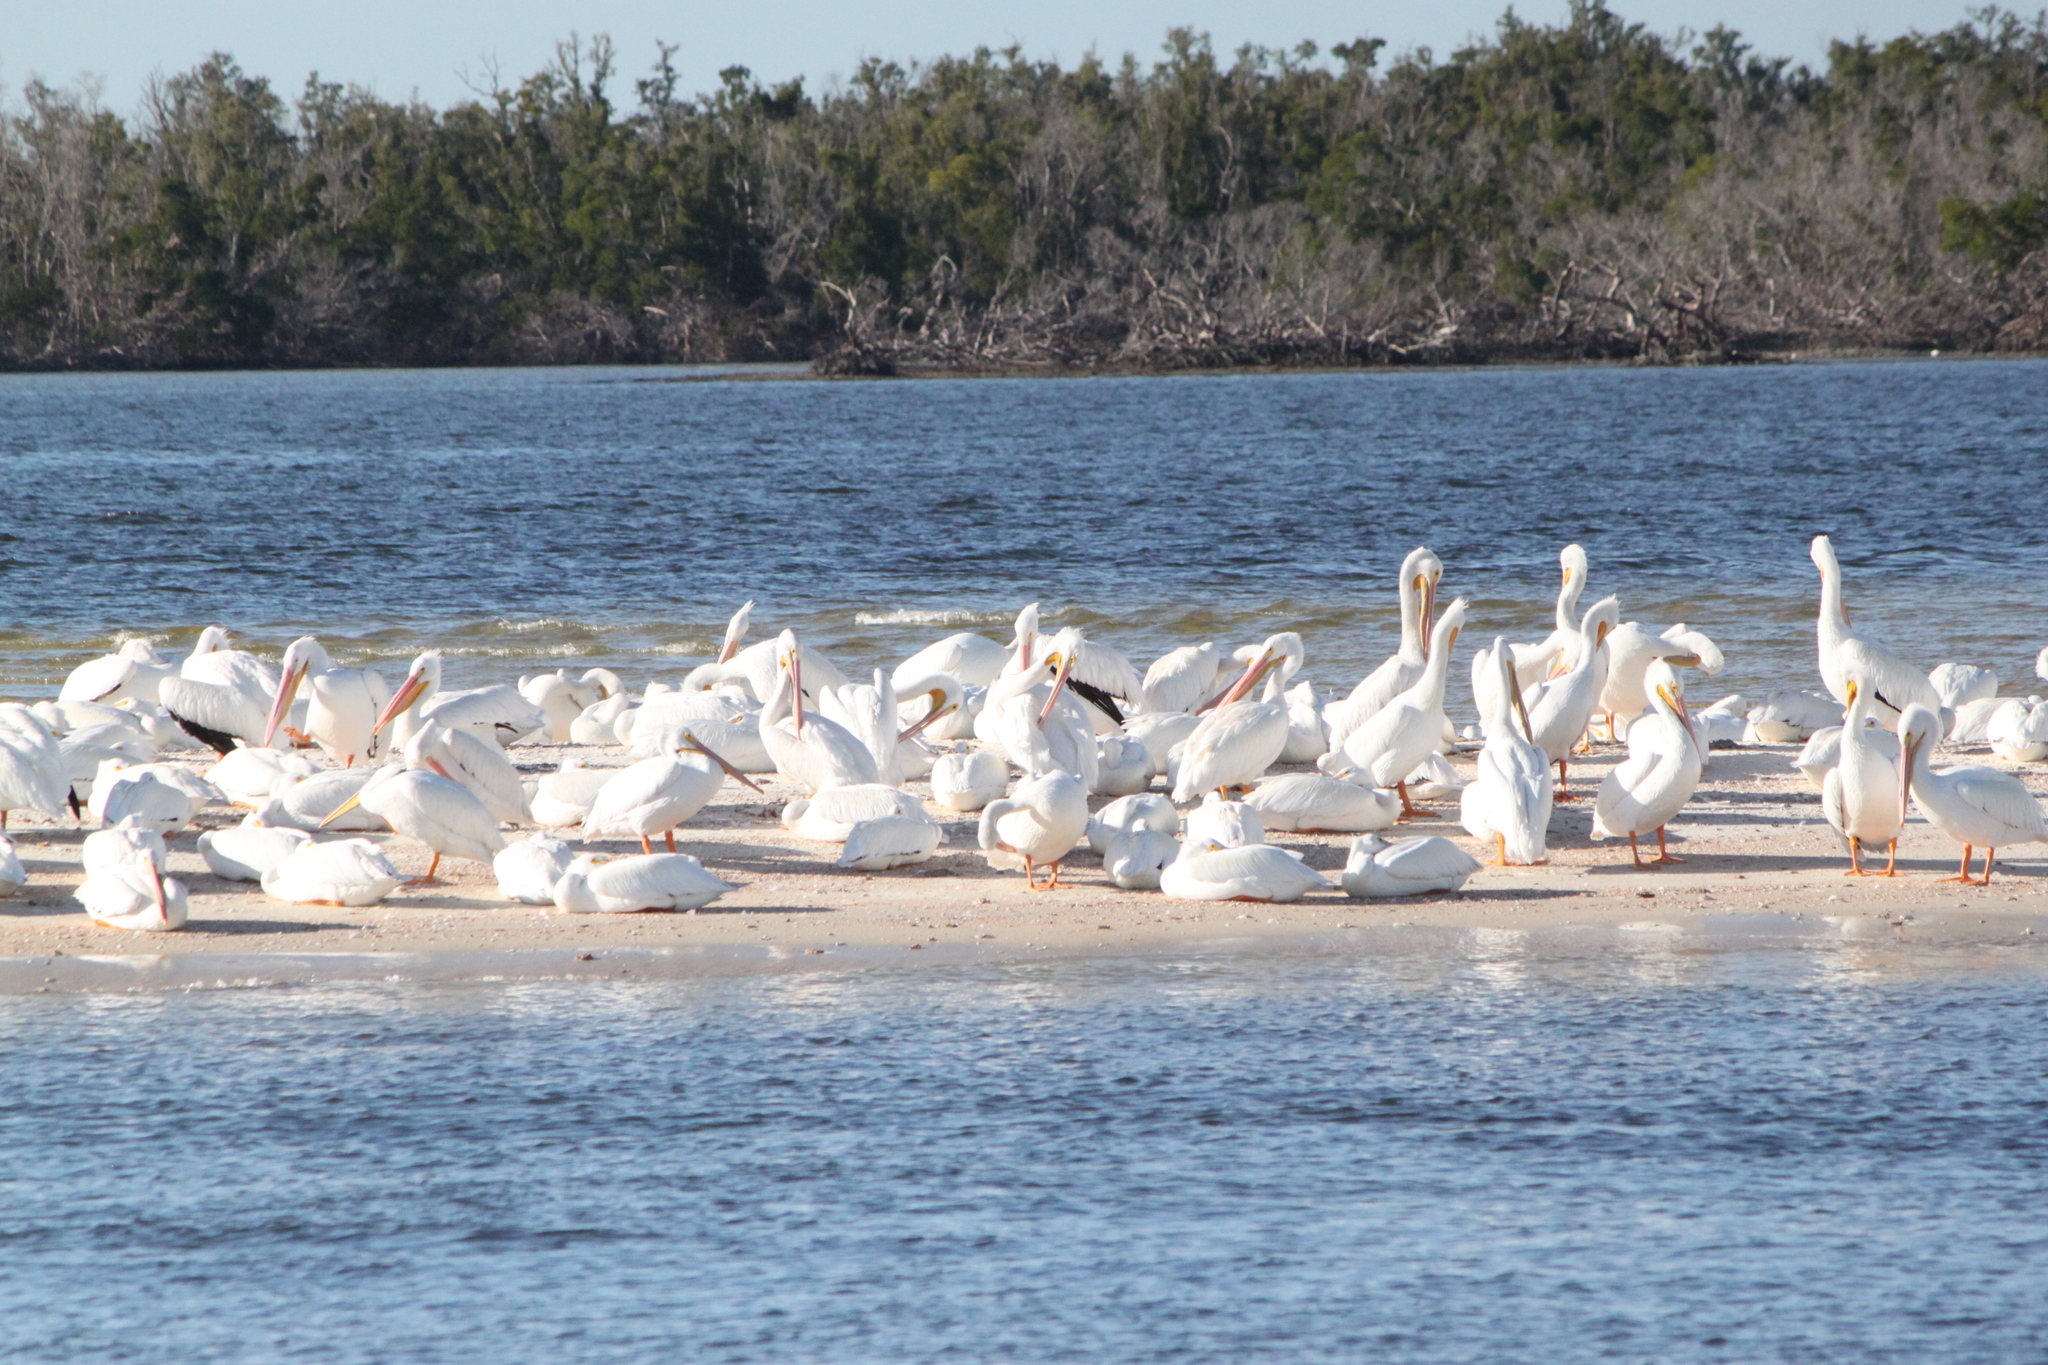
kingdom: Animalia
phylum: Chordata
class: Aves
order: Pelecaniformes
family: Pelecanidae
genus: Pelecanus
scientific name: Pelecanus erythrorhynchos
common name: American white pelican
